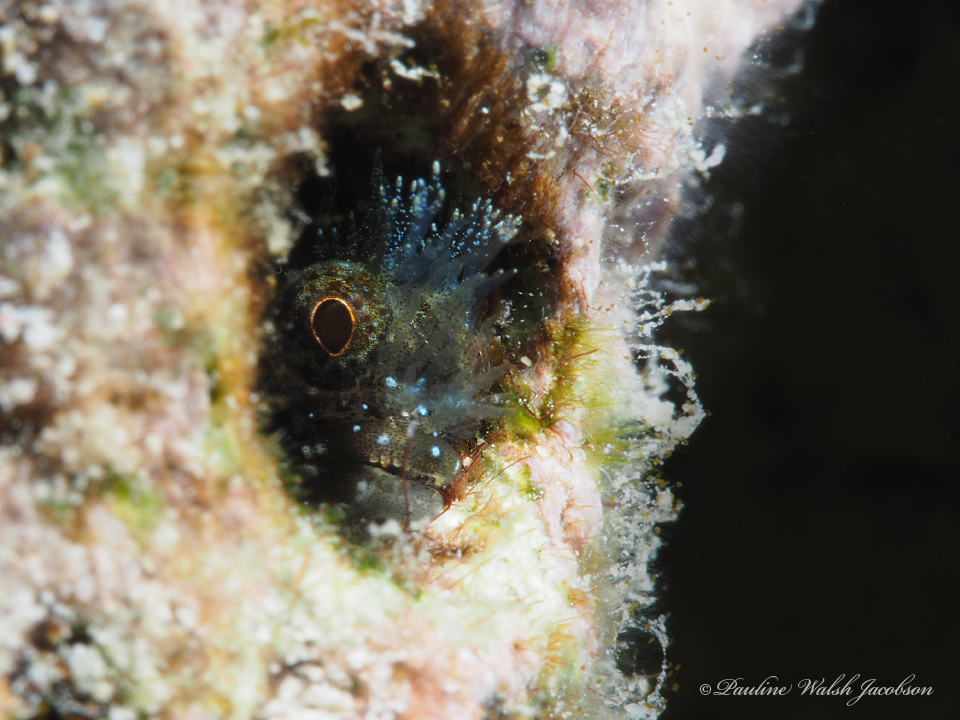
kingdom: Animalia
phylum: Chordata
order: Perciformes
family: Chaenopsidae
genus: Acanthemblemaria
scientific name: Acanthemblemaria medusa
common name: Medusa blenny
